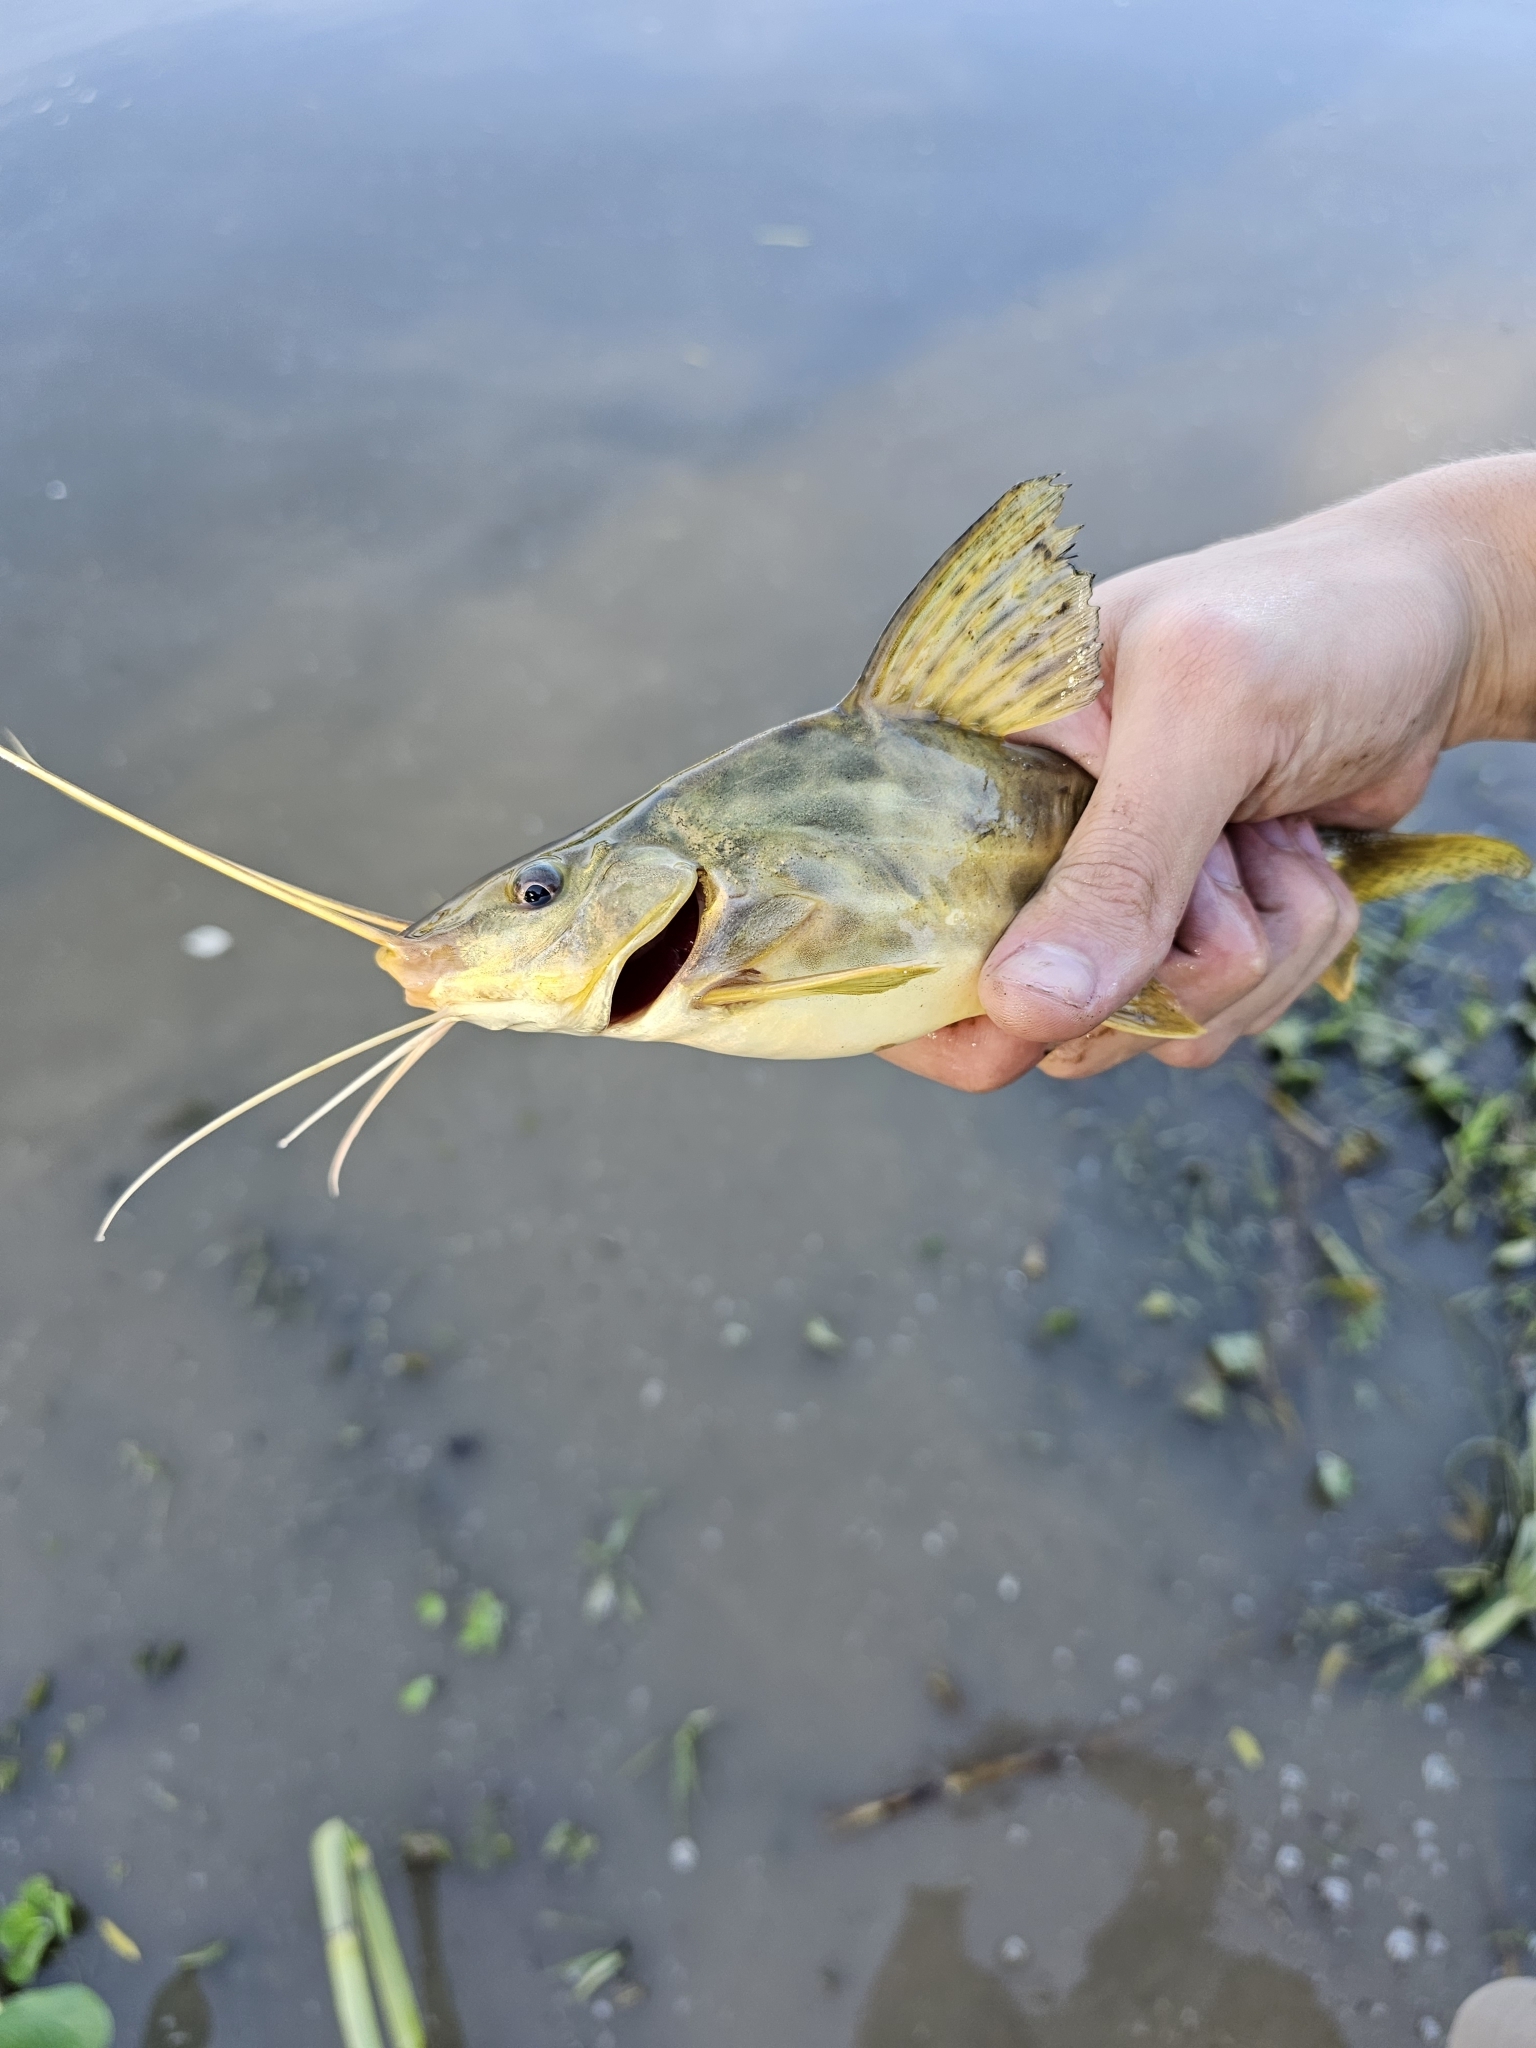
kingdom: Animalia
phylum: Chordata
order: Siluriformes
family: Pimelodidae
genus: Pimelodus
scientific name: Pimelodus maculatus
